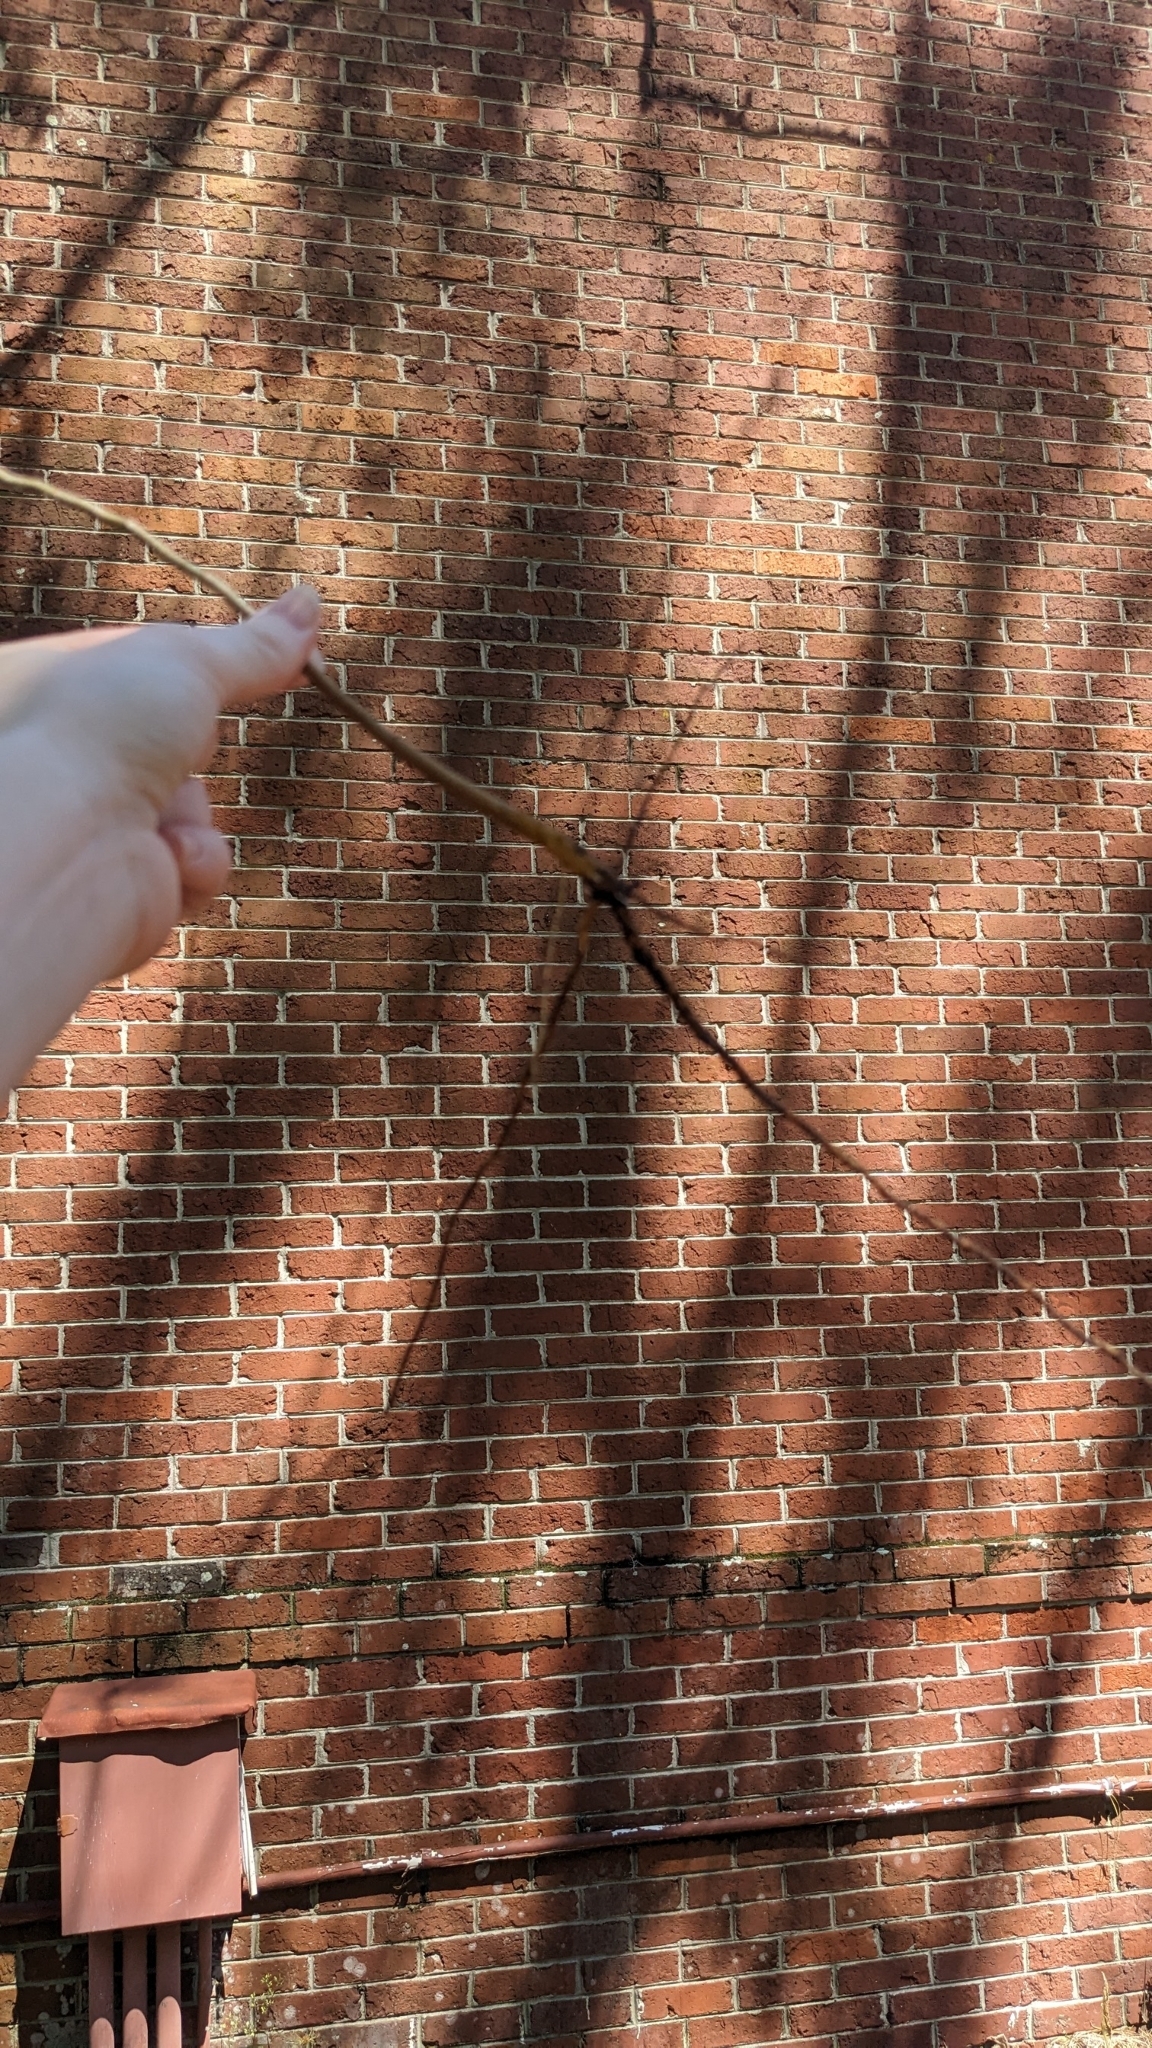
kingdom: Plantae
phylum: Tracheophyta
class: Magnoliopsida
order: Malpighiales
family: Euphorbiaceae
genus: Triadica
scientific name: Triadica sebifera
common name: Chinese tallow
